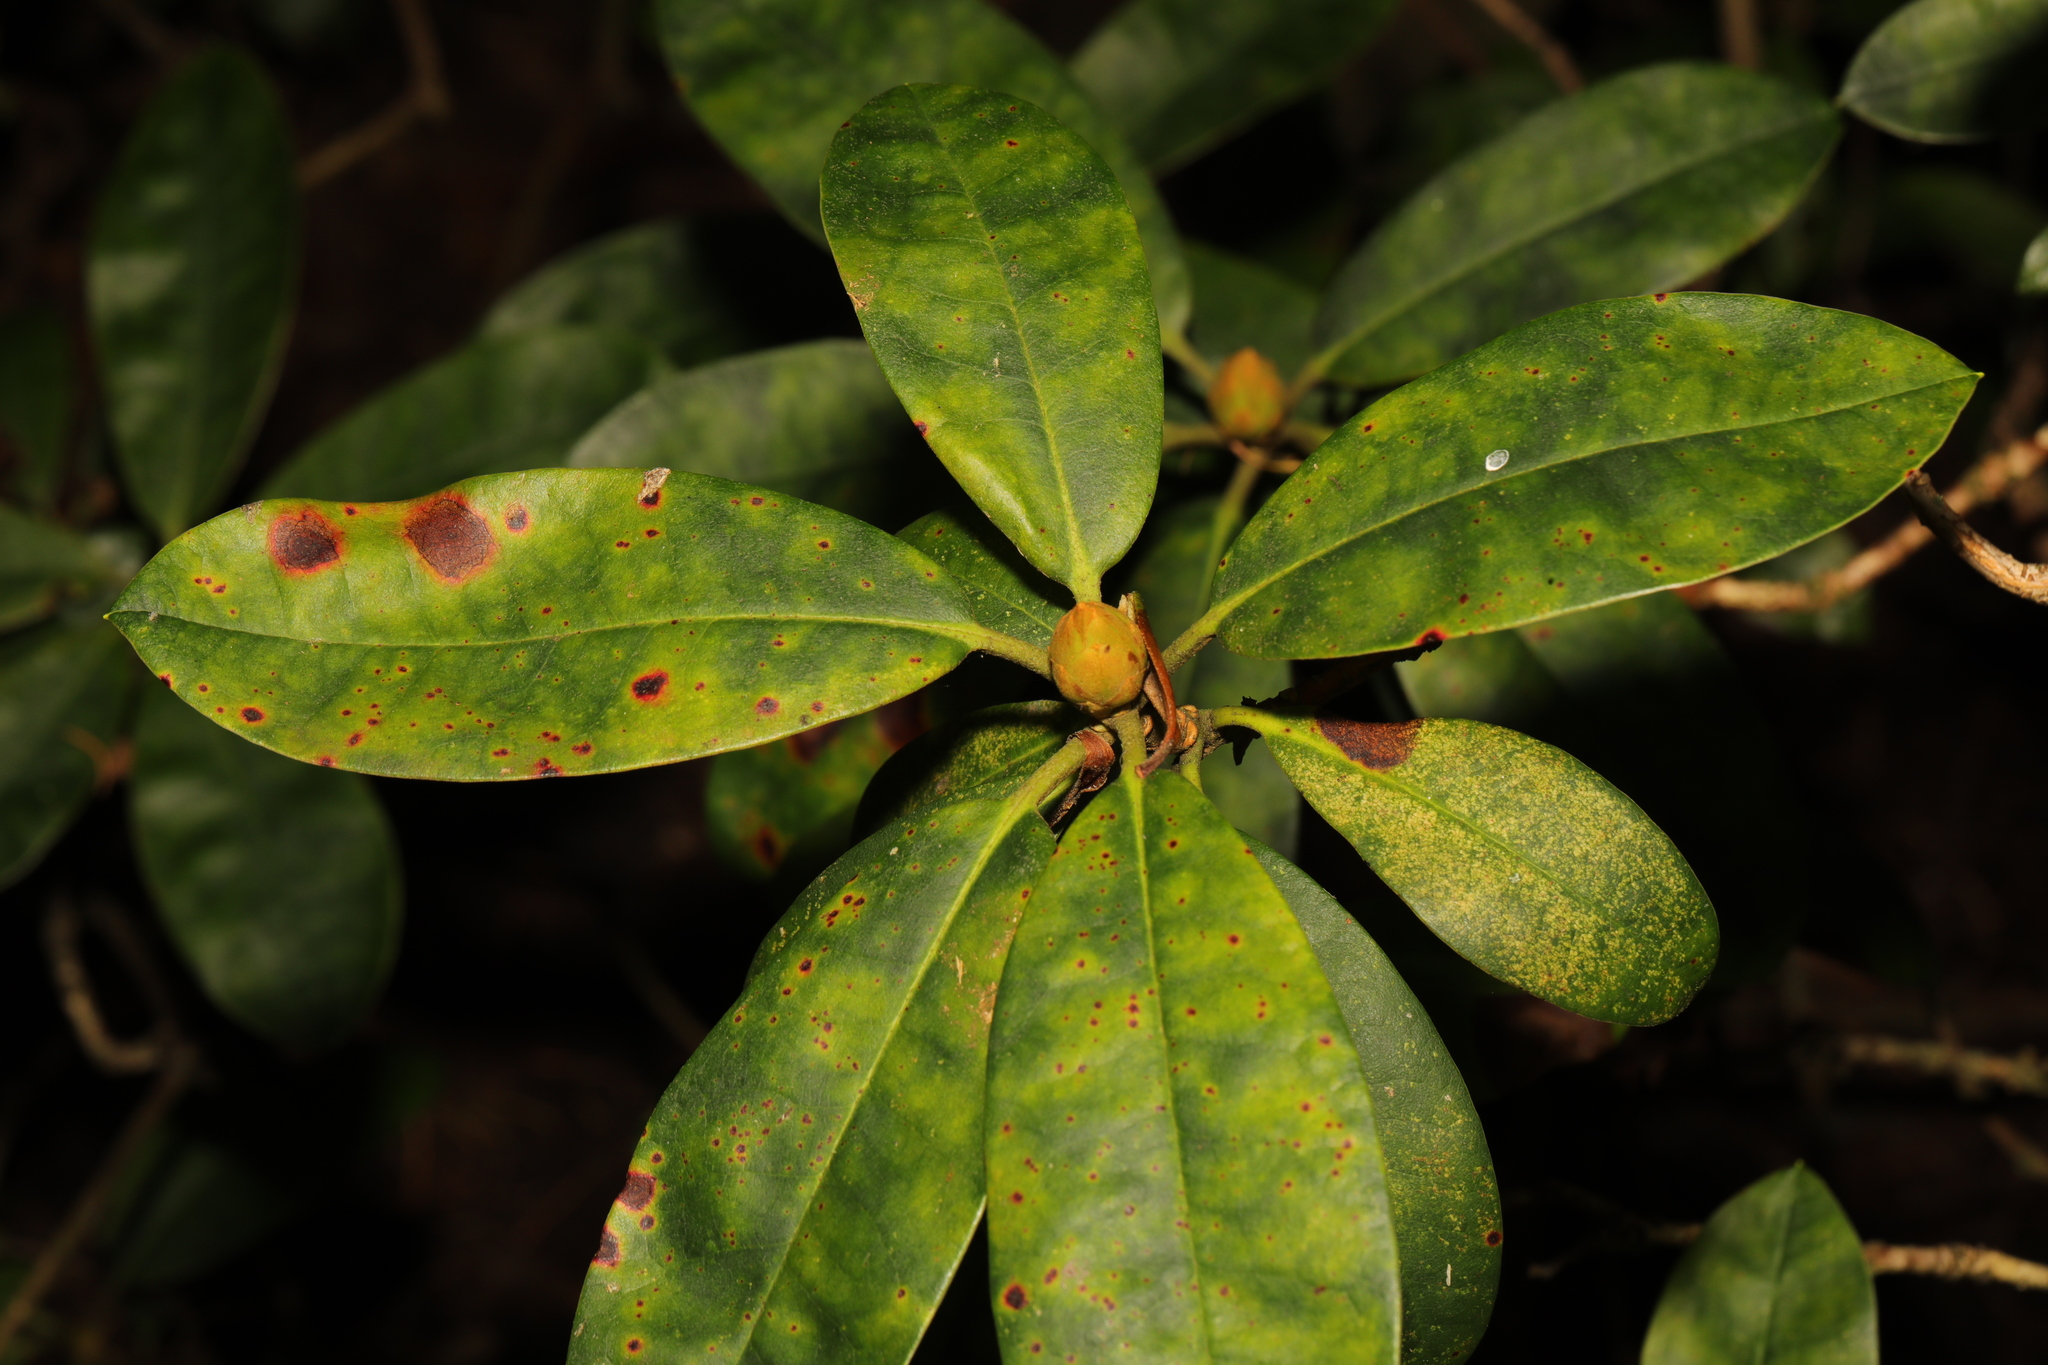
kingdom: Fungi
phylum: Ascomycota
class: Dothideomycetes
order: Mycosphaerellales
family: Mycosphaerellaceae
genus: Chuppomyces
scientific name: Chuppomyces handelii
